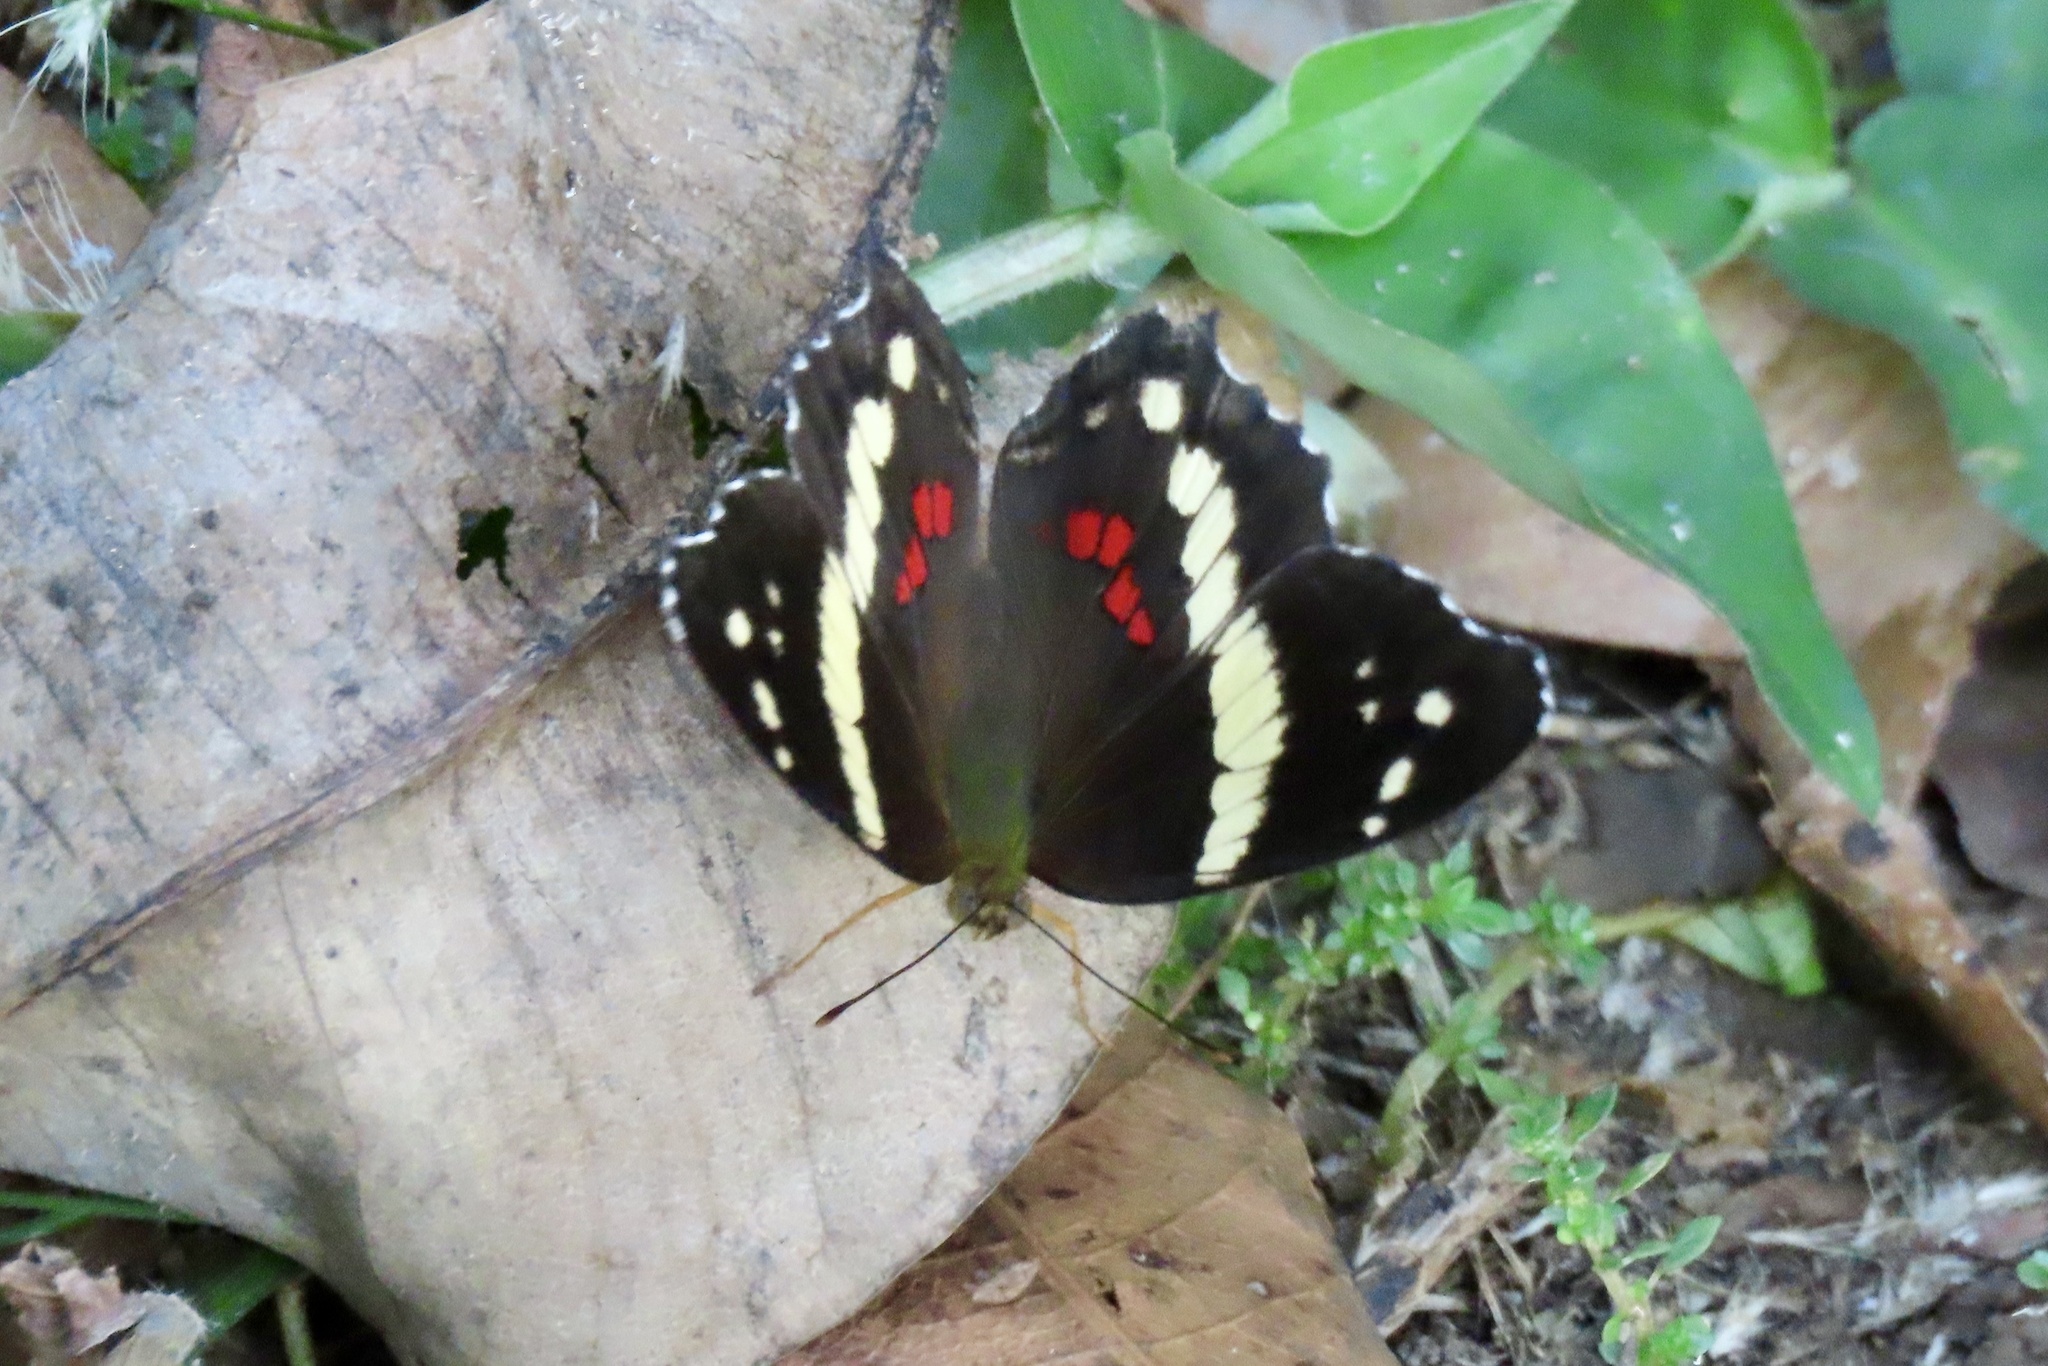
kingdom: Animalia
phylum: Arthropoda
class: Insecta
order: Lepidoptera
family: Nymphalidae
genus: Anartia
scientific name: Anartia fatima
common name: Banded peacock
